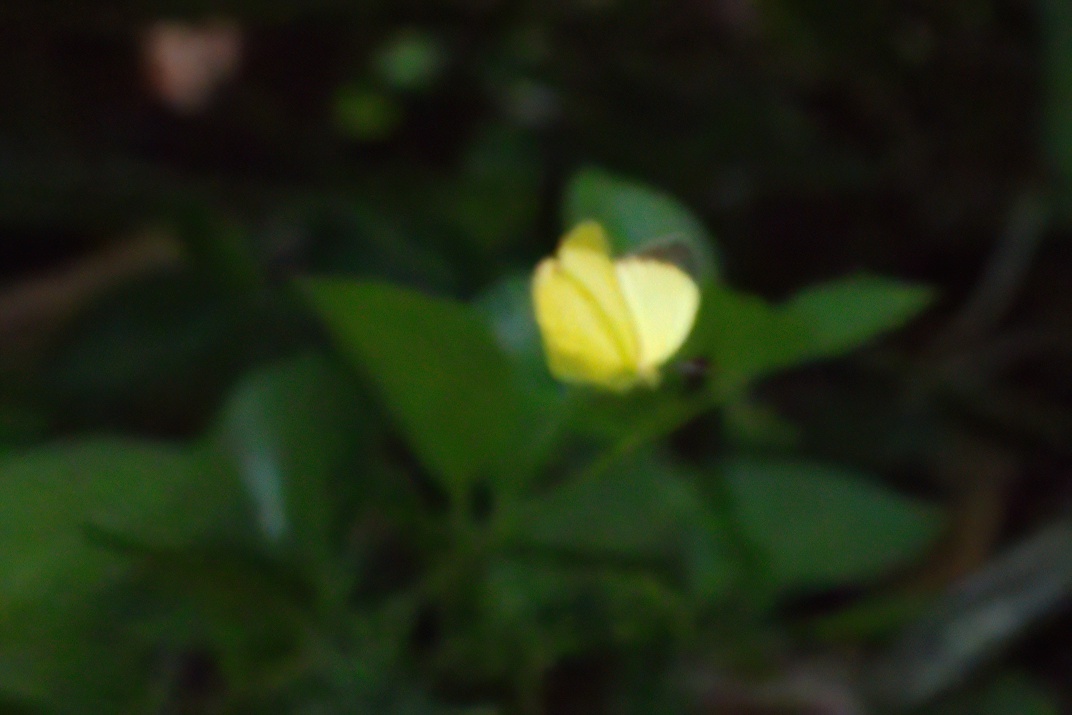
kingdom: Animalia
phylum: Arthropoda
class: Insecta
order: Lepidoptera
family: Pieridae
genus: Pyrisitia
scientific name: Pyrisitia nise
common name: Mimosa yellow
